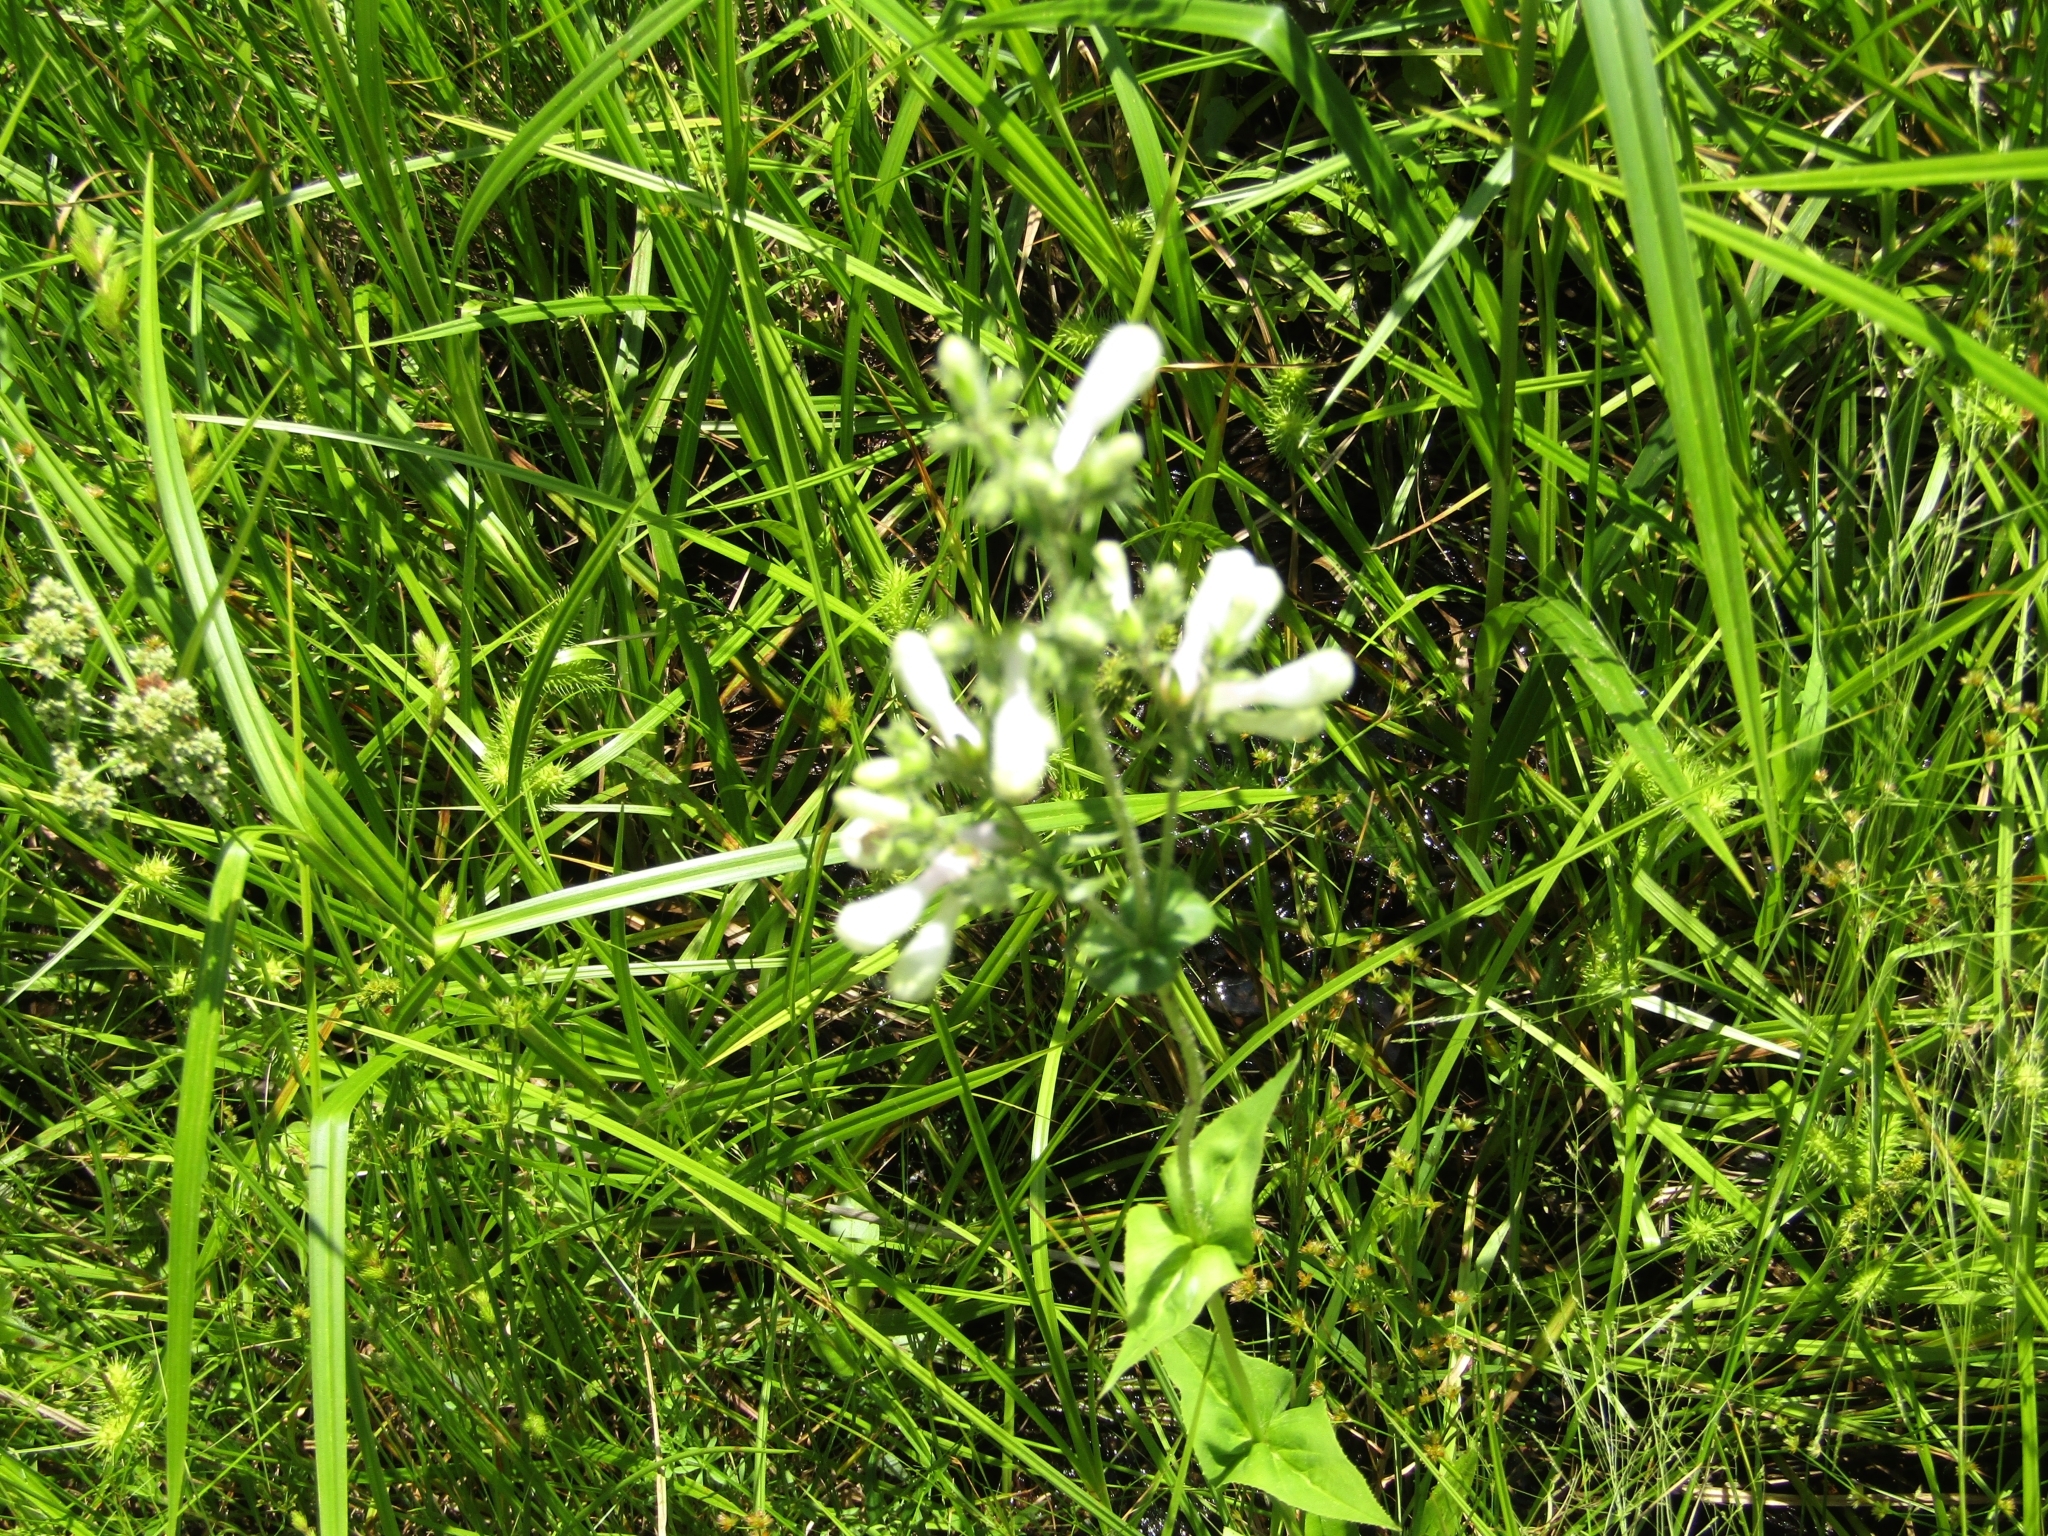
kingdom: Plantae
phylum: Tracheophyta
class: Magnoliopsida
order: Lamiales
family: Plantaginaceae
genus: Penstemon
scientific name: Penstemon digitalis
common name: Foxglove beardtongue
